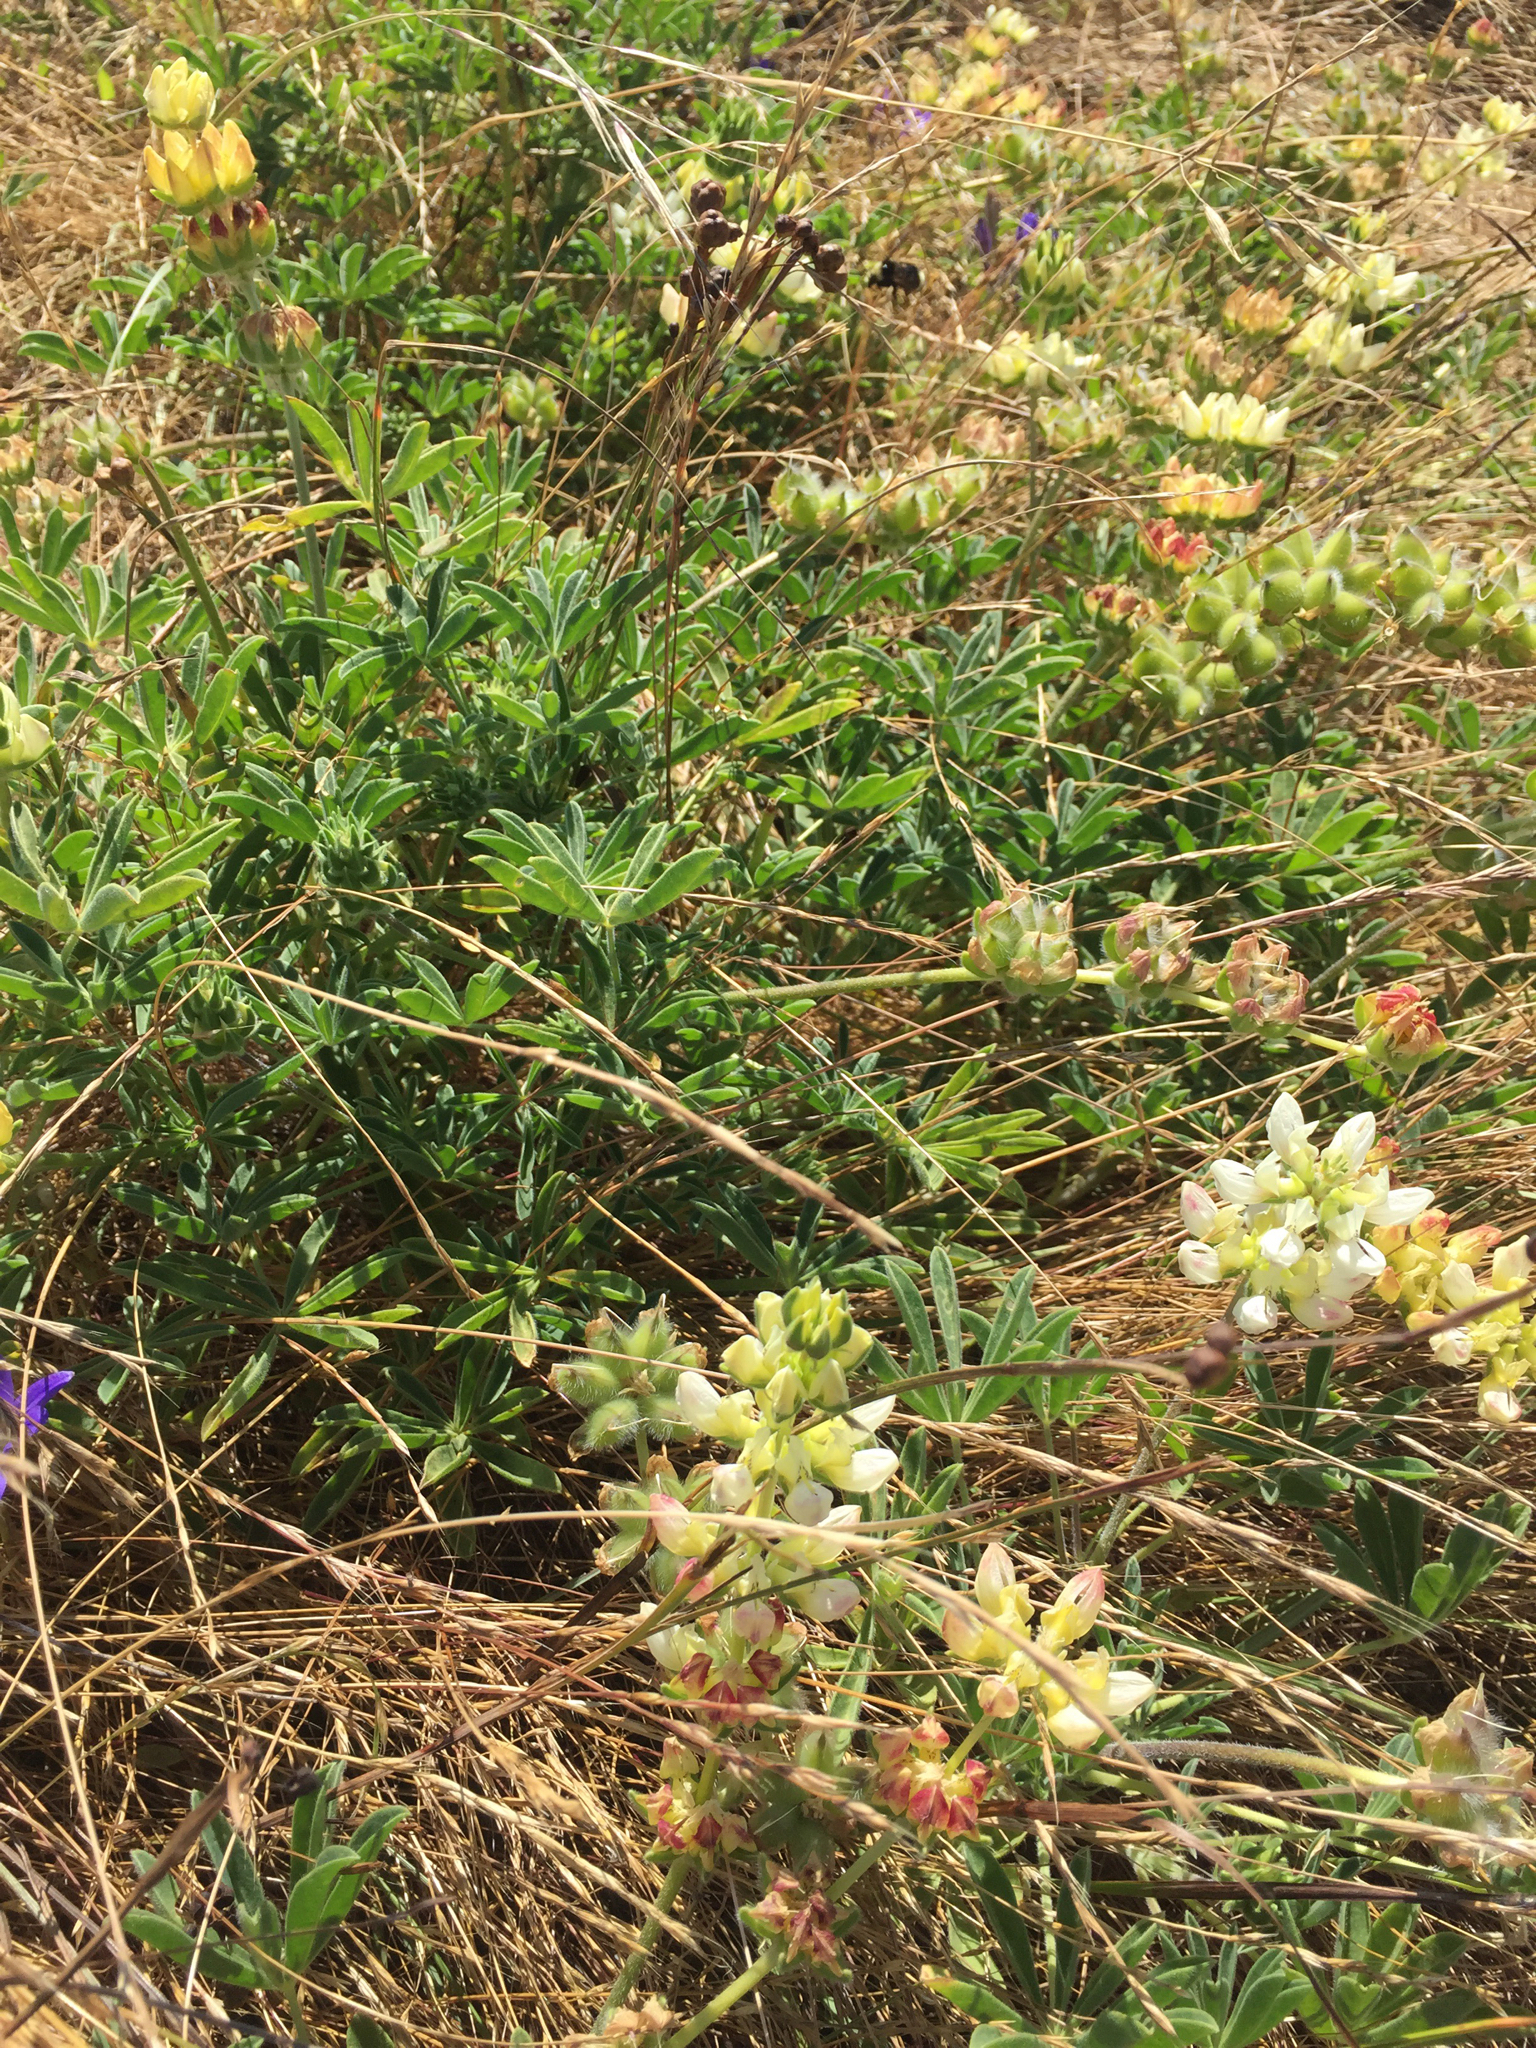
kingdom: Plantae
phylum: Tracheophyta
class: Magnoliopsida
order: Fabales
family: Fabaceae
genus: Lupinus
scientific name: Lupinus microcarpus
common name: Chick lupine
